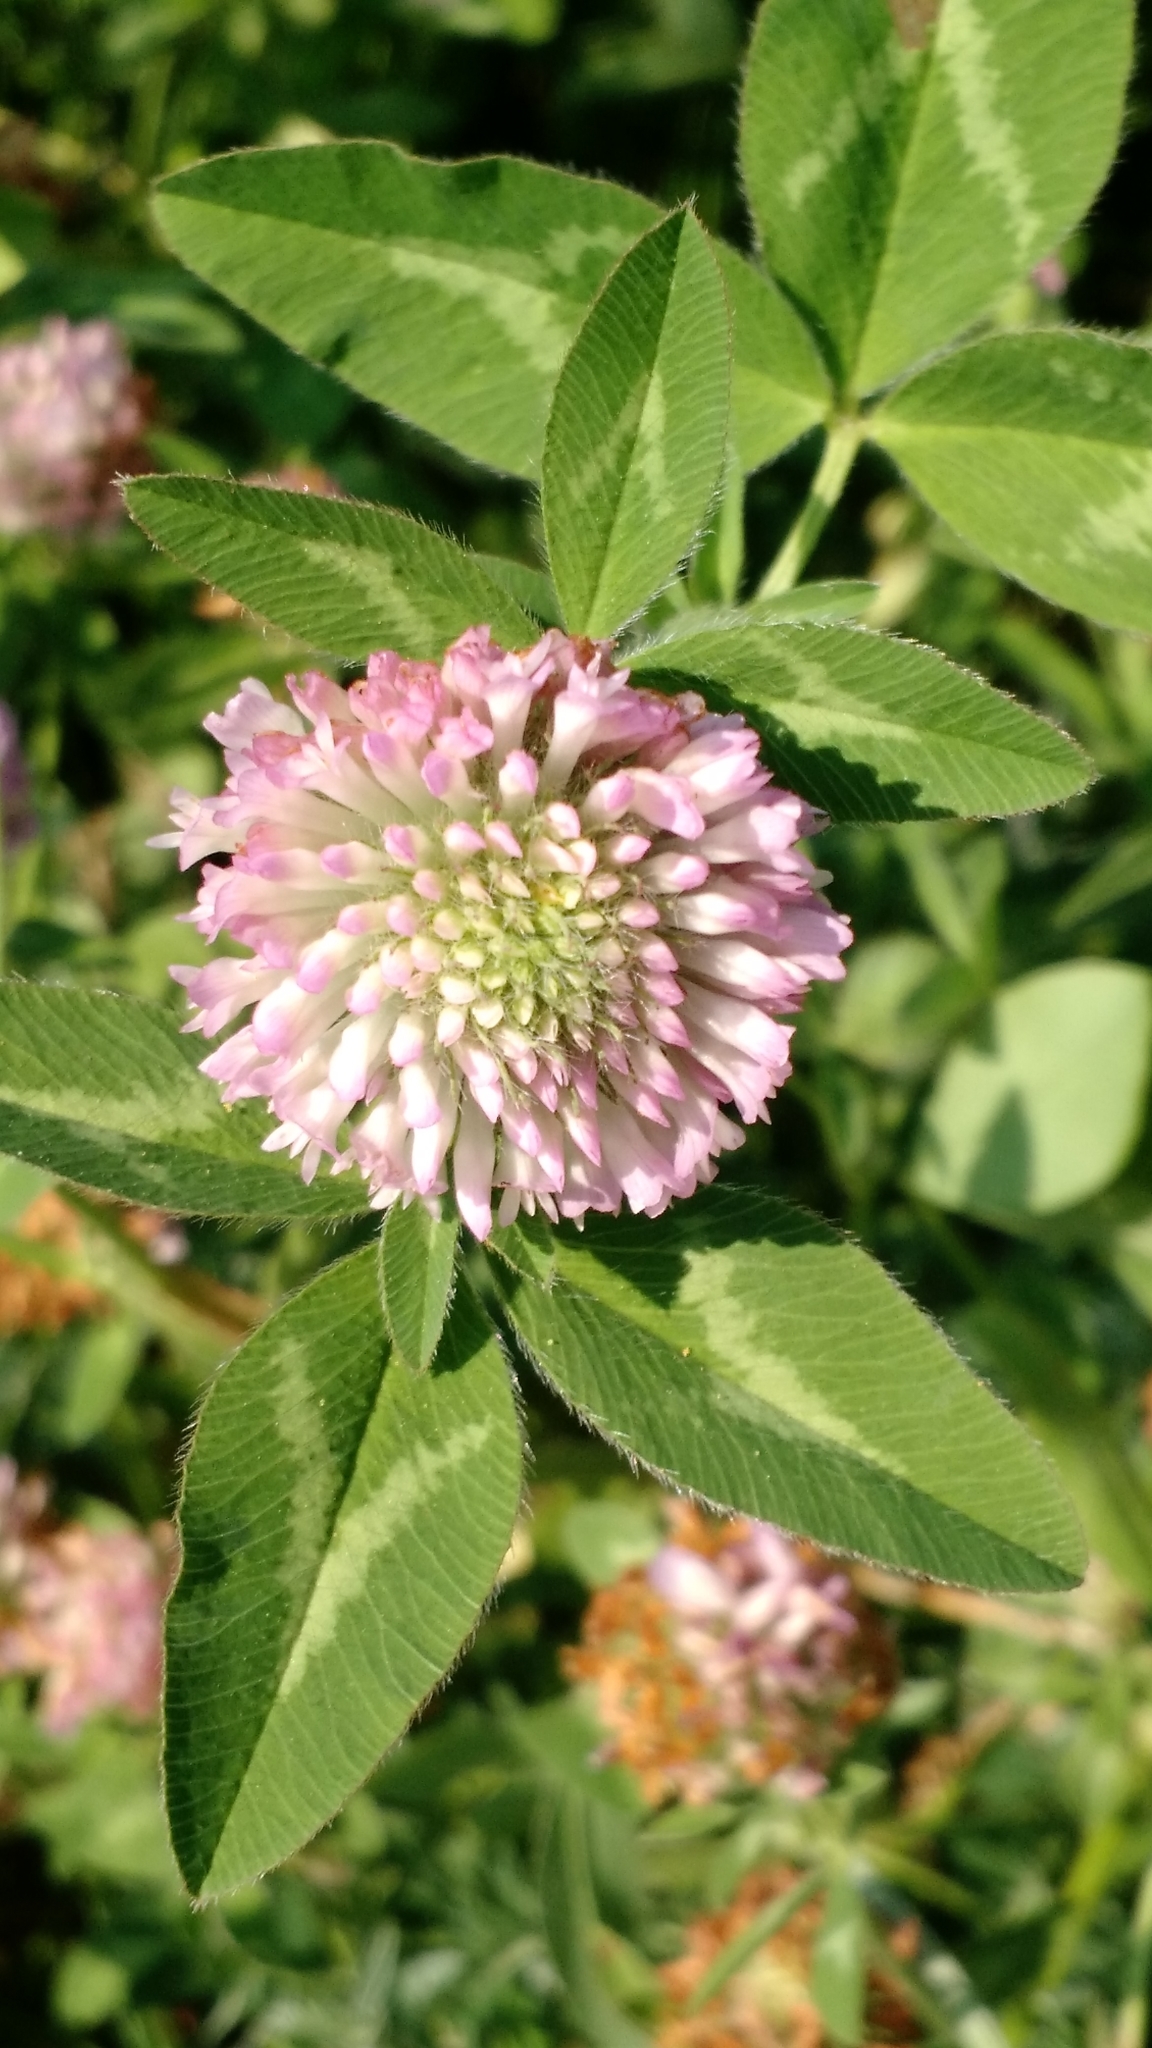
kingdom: Plantae
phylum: Tracheophyta
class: Magnoliopsida
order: Fabales
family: Fabaceae
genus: Trifolium
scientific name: Trifolium pratense
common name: Red clover
